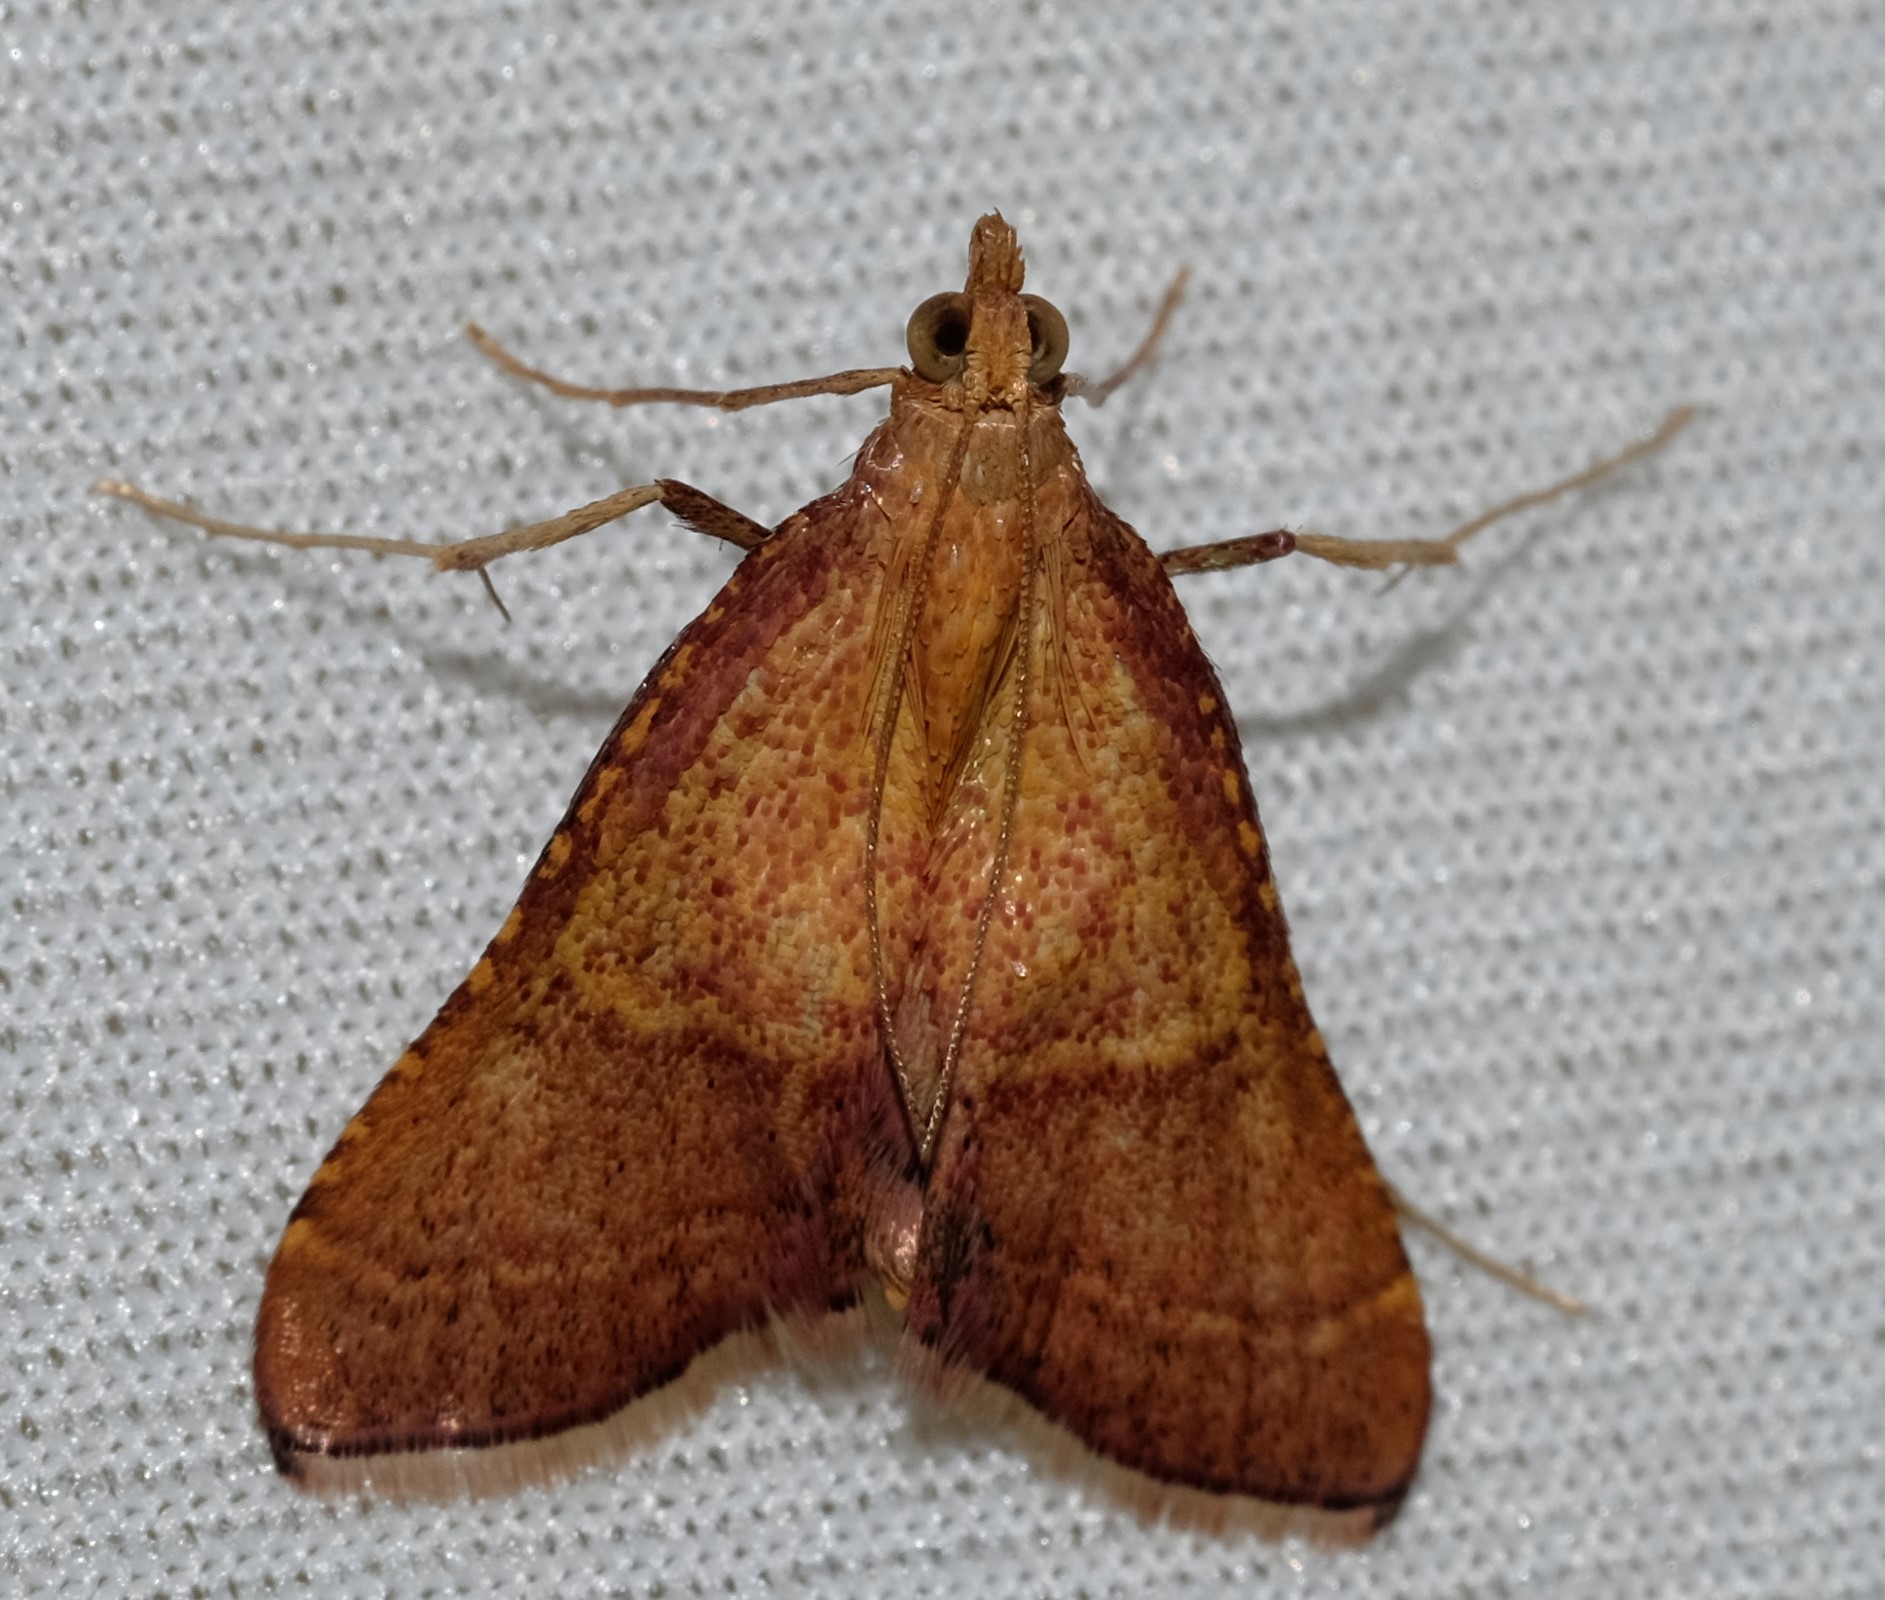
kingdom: Animalia
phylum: Arthropoda
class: Insecta
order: Lepidoptera
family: Pyralidae
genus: Endotricha
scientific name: Endotricha pyrosalis
